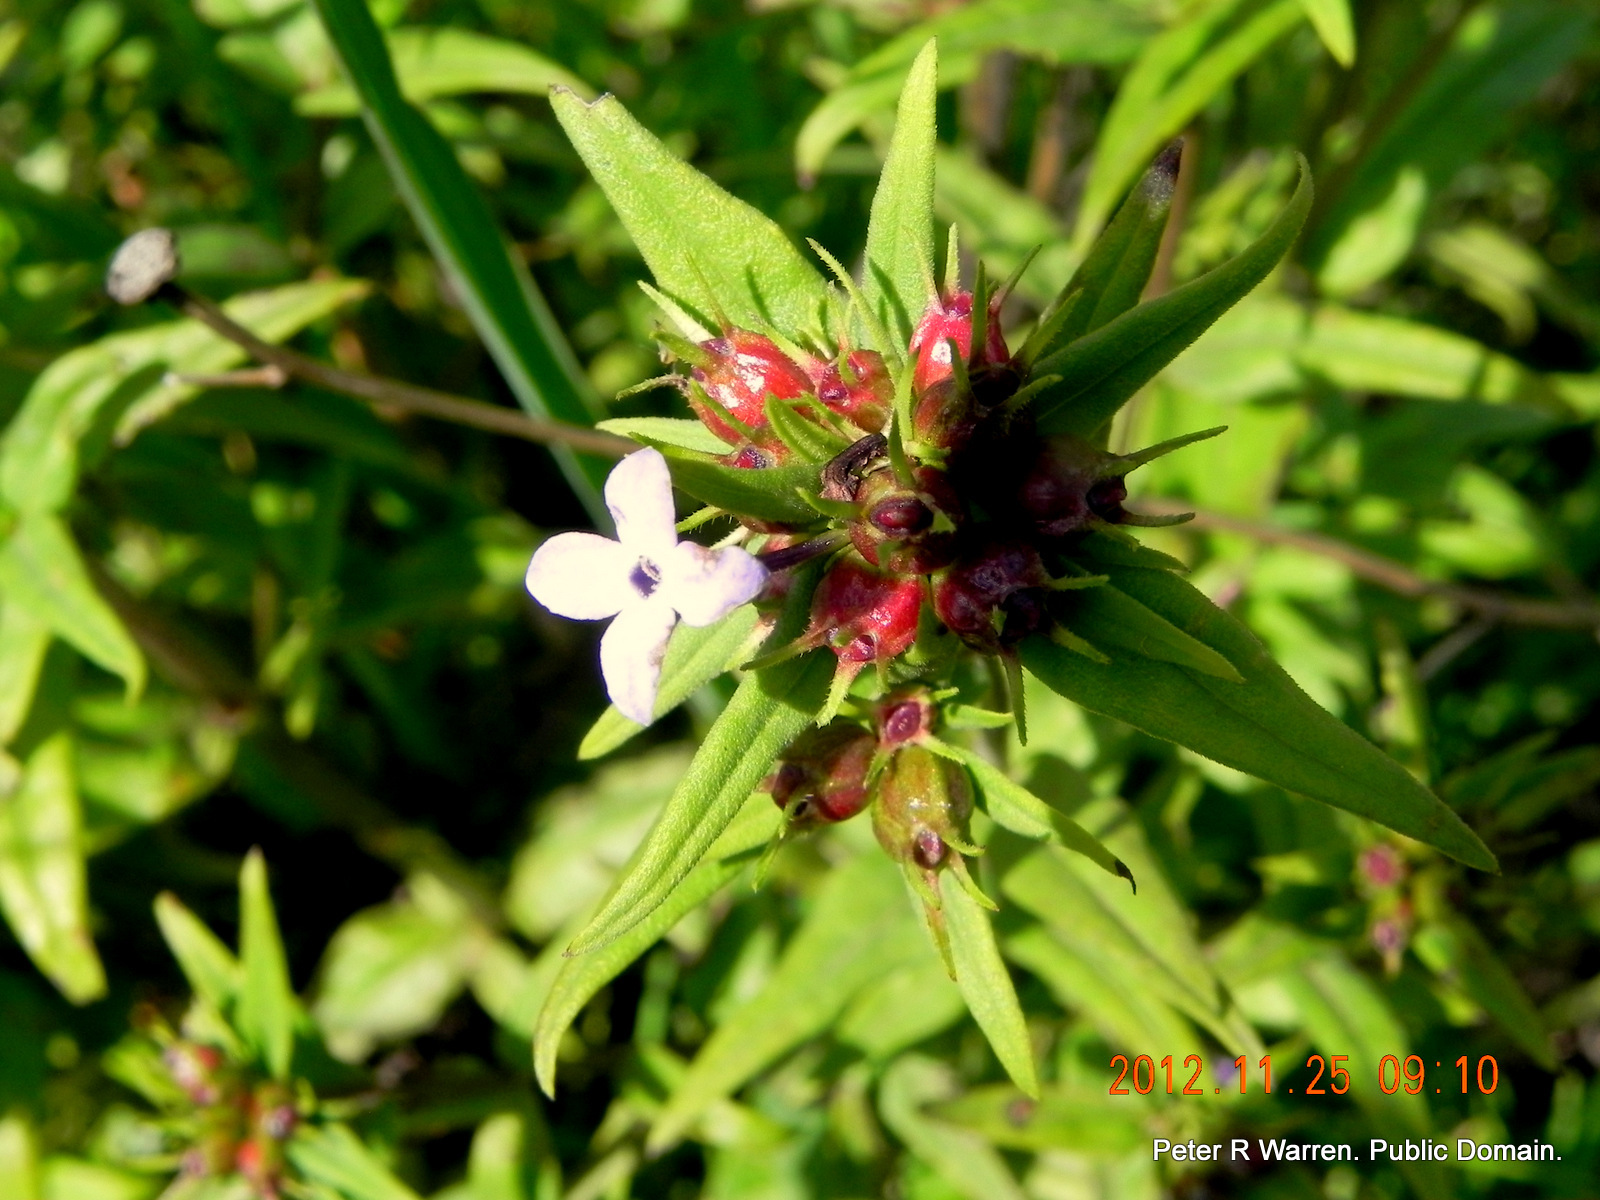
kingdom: Plantae
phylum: Tracheophyta
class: Magnoliopsida
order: Gentianales
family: Rubiaceae
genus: Conostomium
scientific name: Conostomium natalense
